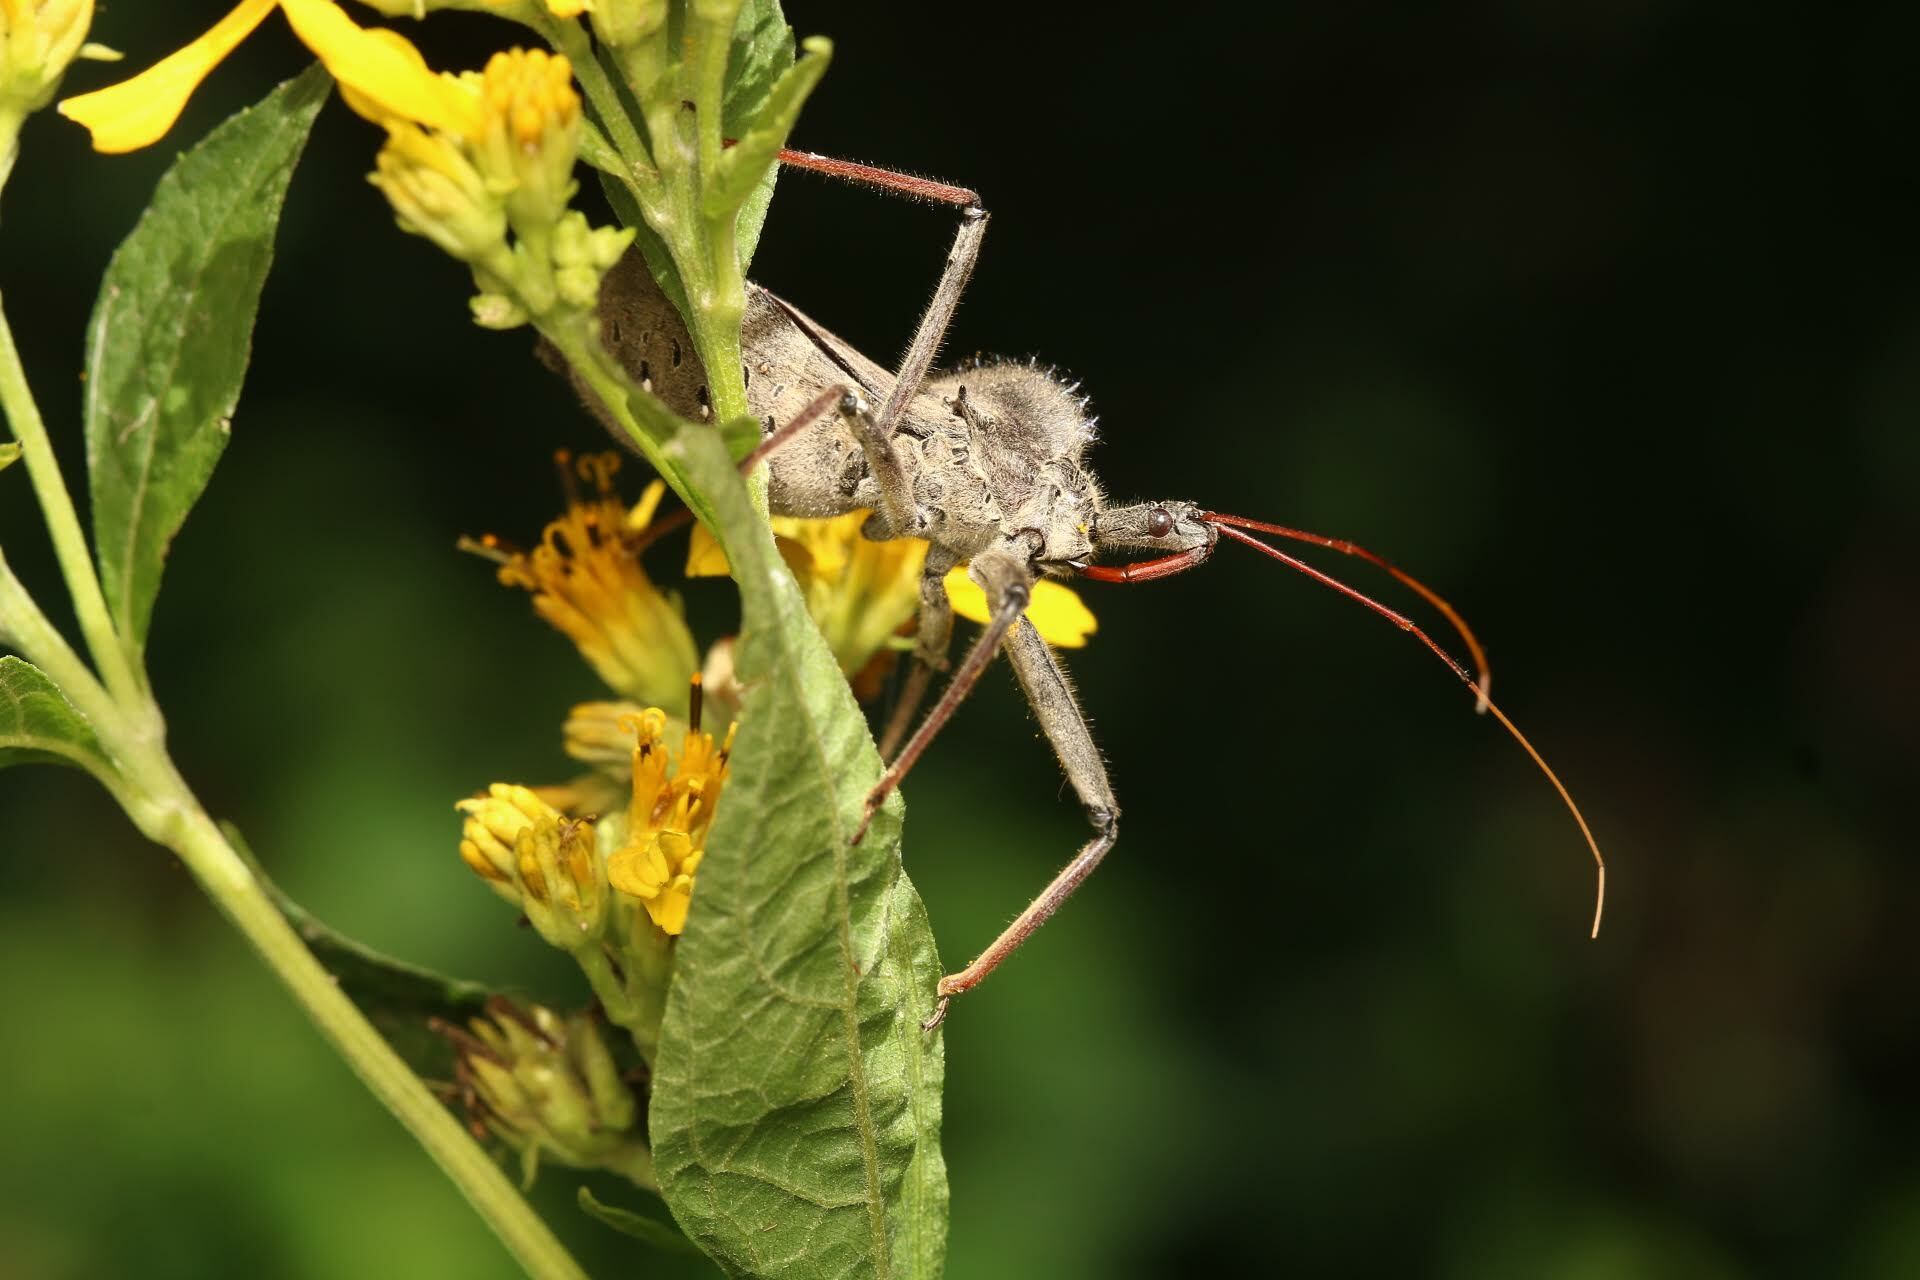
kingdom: Animalia
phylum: Arthropoda
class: Insecta
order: Hemiptera
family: Reduviidae
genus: Arilus
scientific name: Arilus cristatus
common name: North american wheel bug
